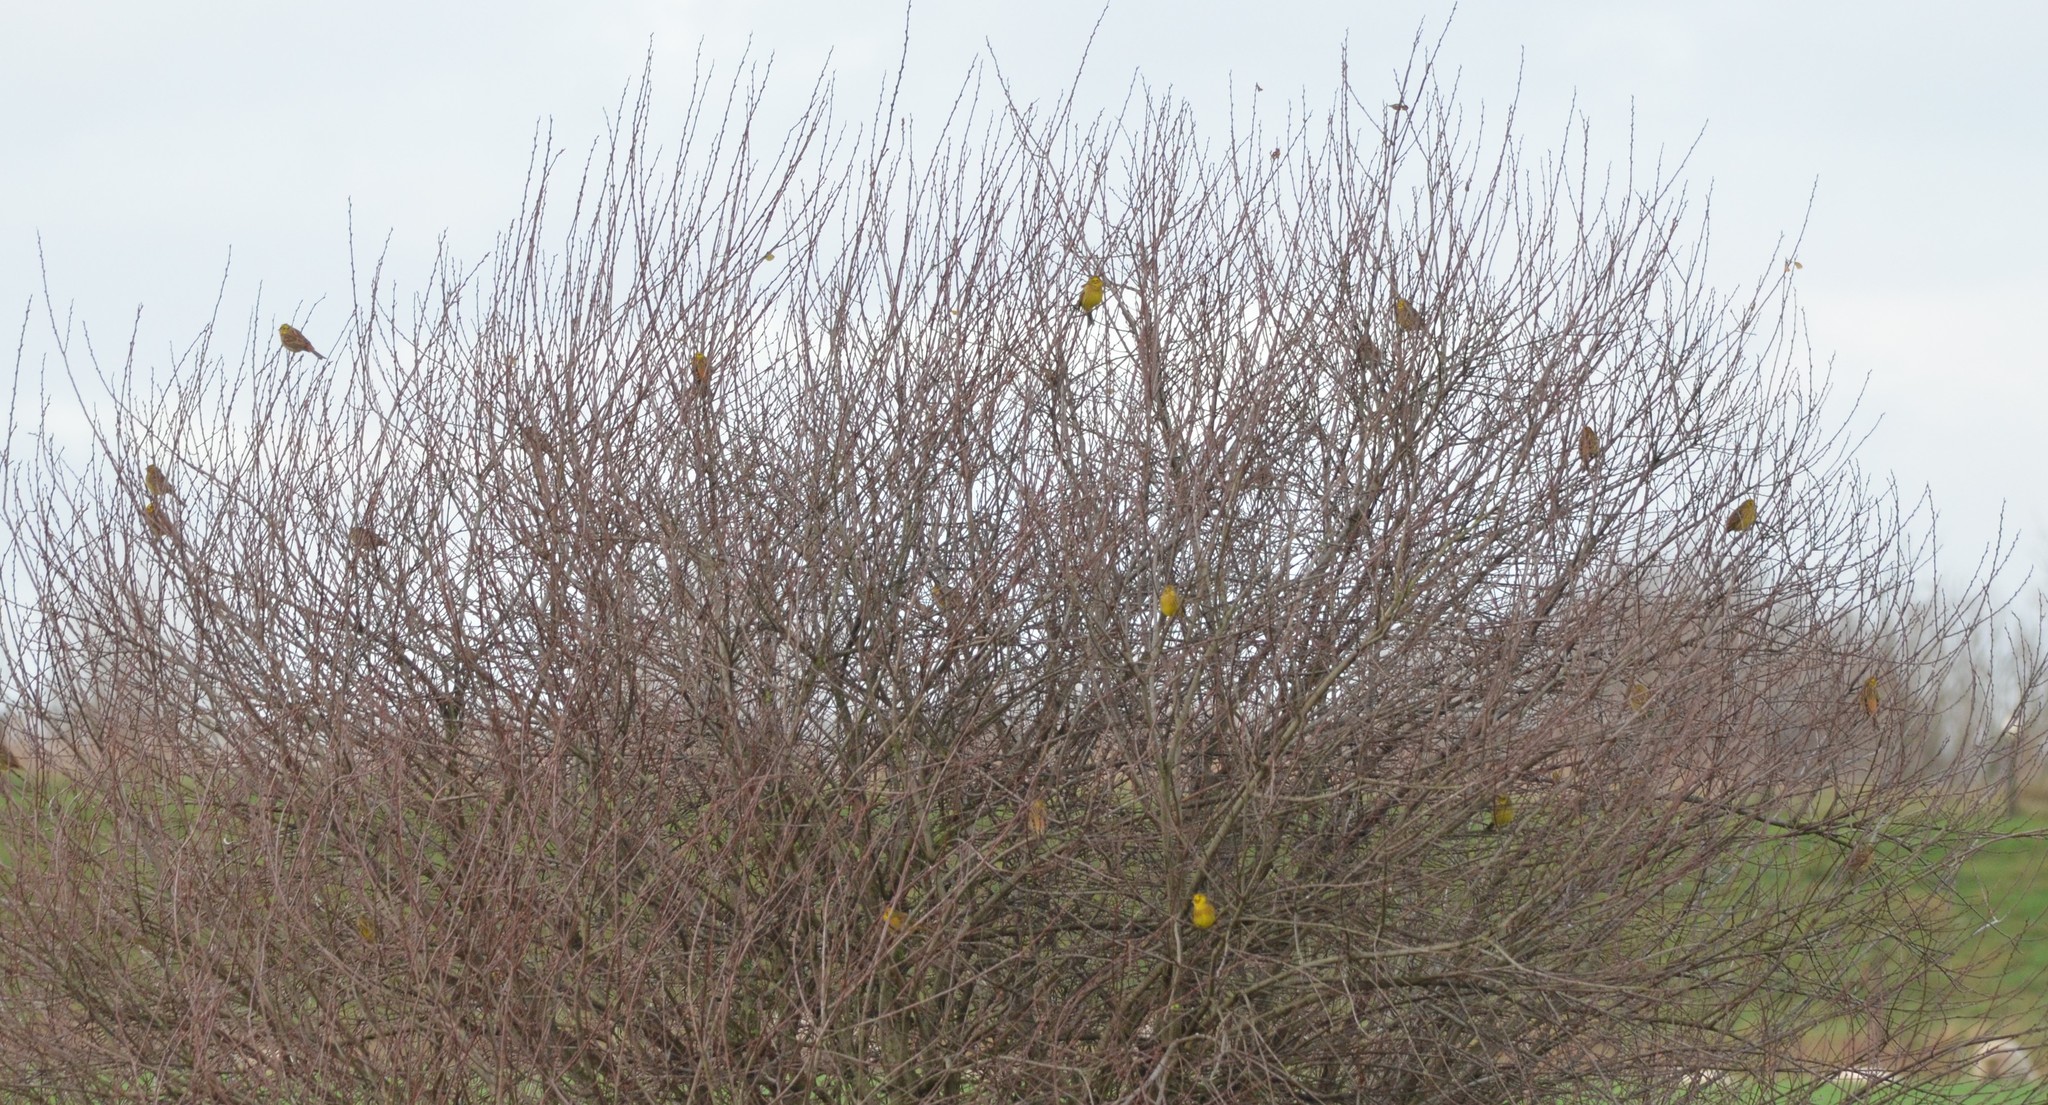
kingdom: Animalia
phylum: Chordata
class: Aves
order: Passeriformes
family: Emberizidae
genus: Emberiza
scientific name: Emberiza citrinella
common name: Yellowhammer
